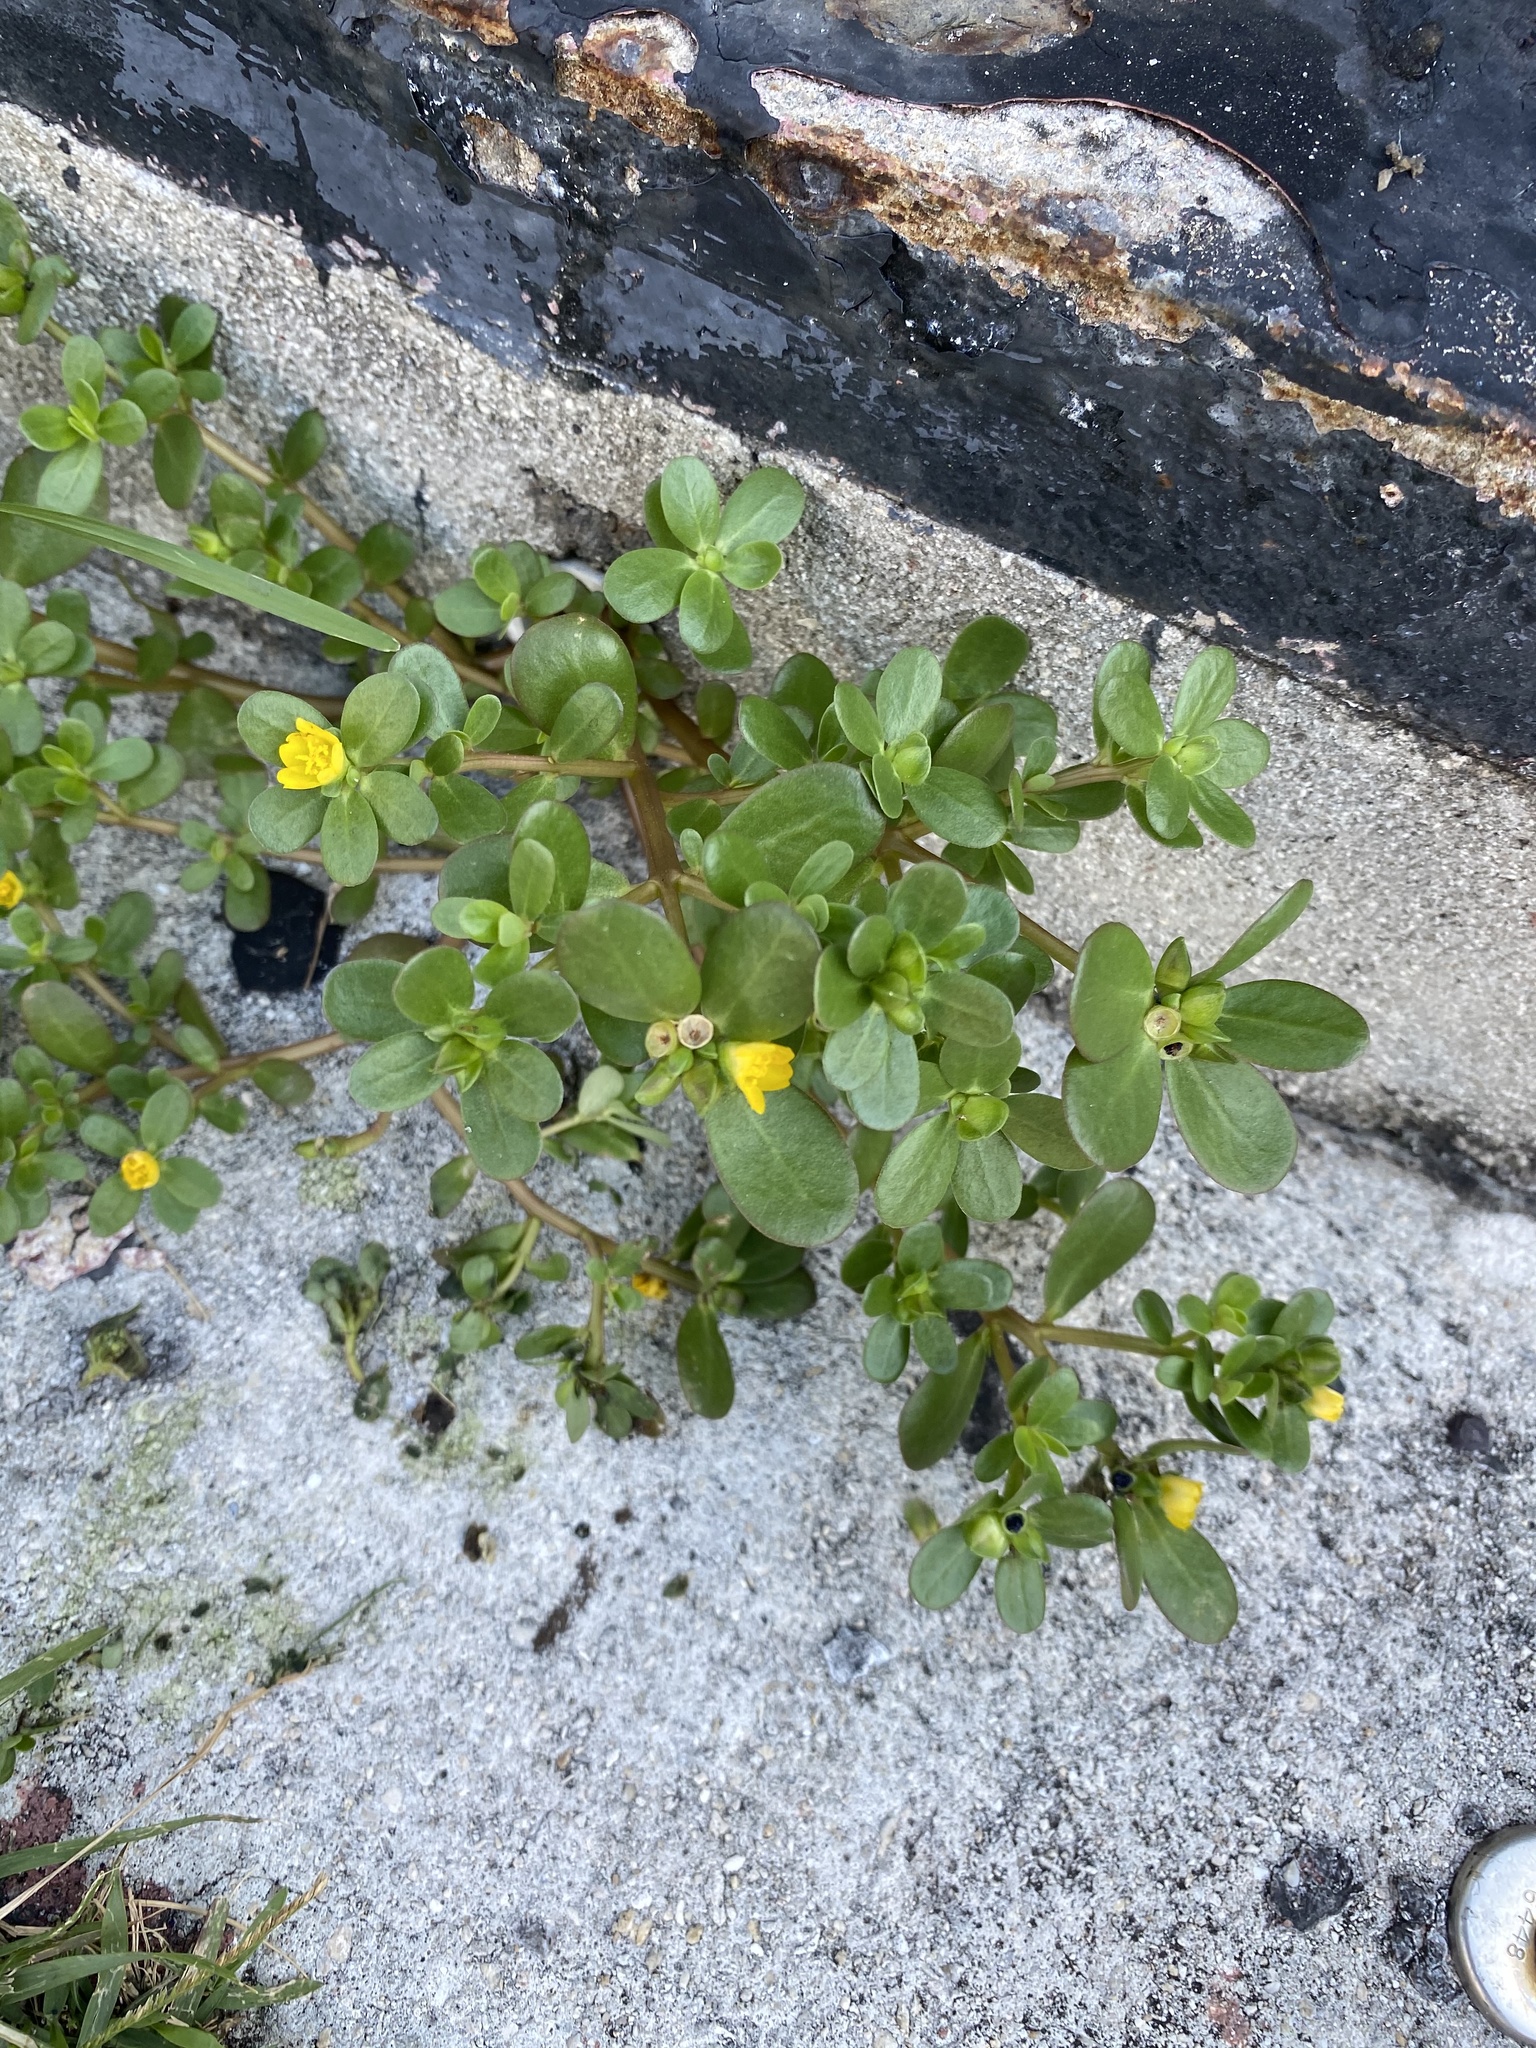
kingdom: Plantae
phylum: Tracheophyta
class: Magnoliopsida
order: Caryophyllales
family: Portulacaceae
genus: Portulaca
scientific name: Portulaca oleracea
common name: Common purslane
